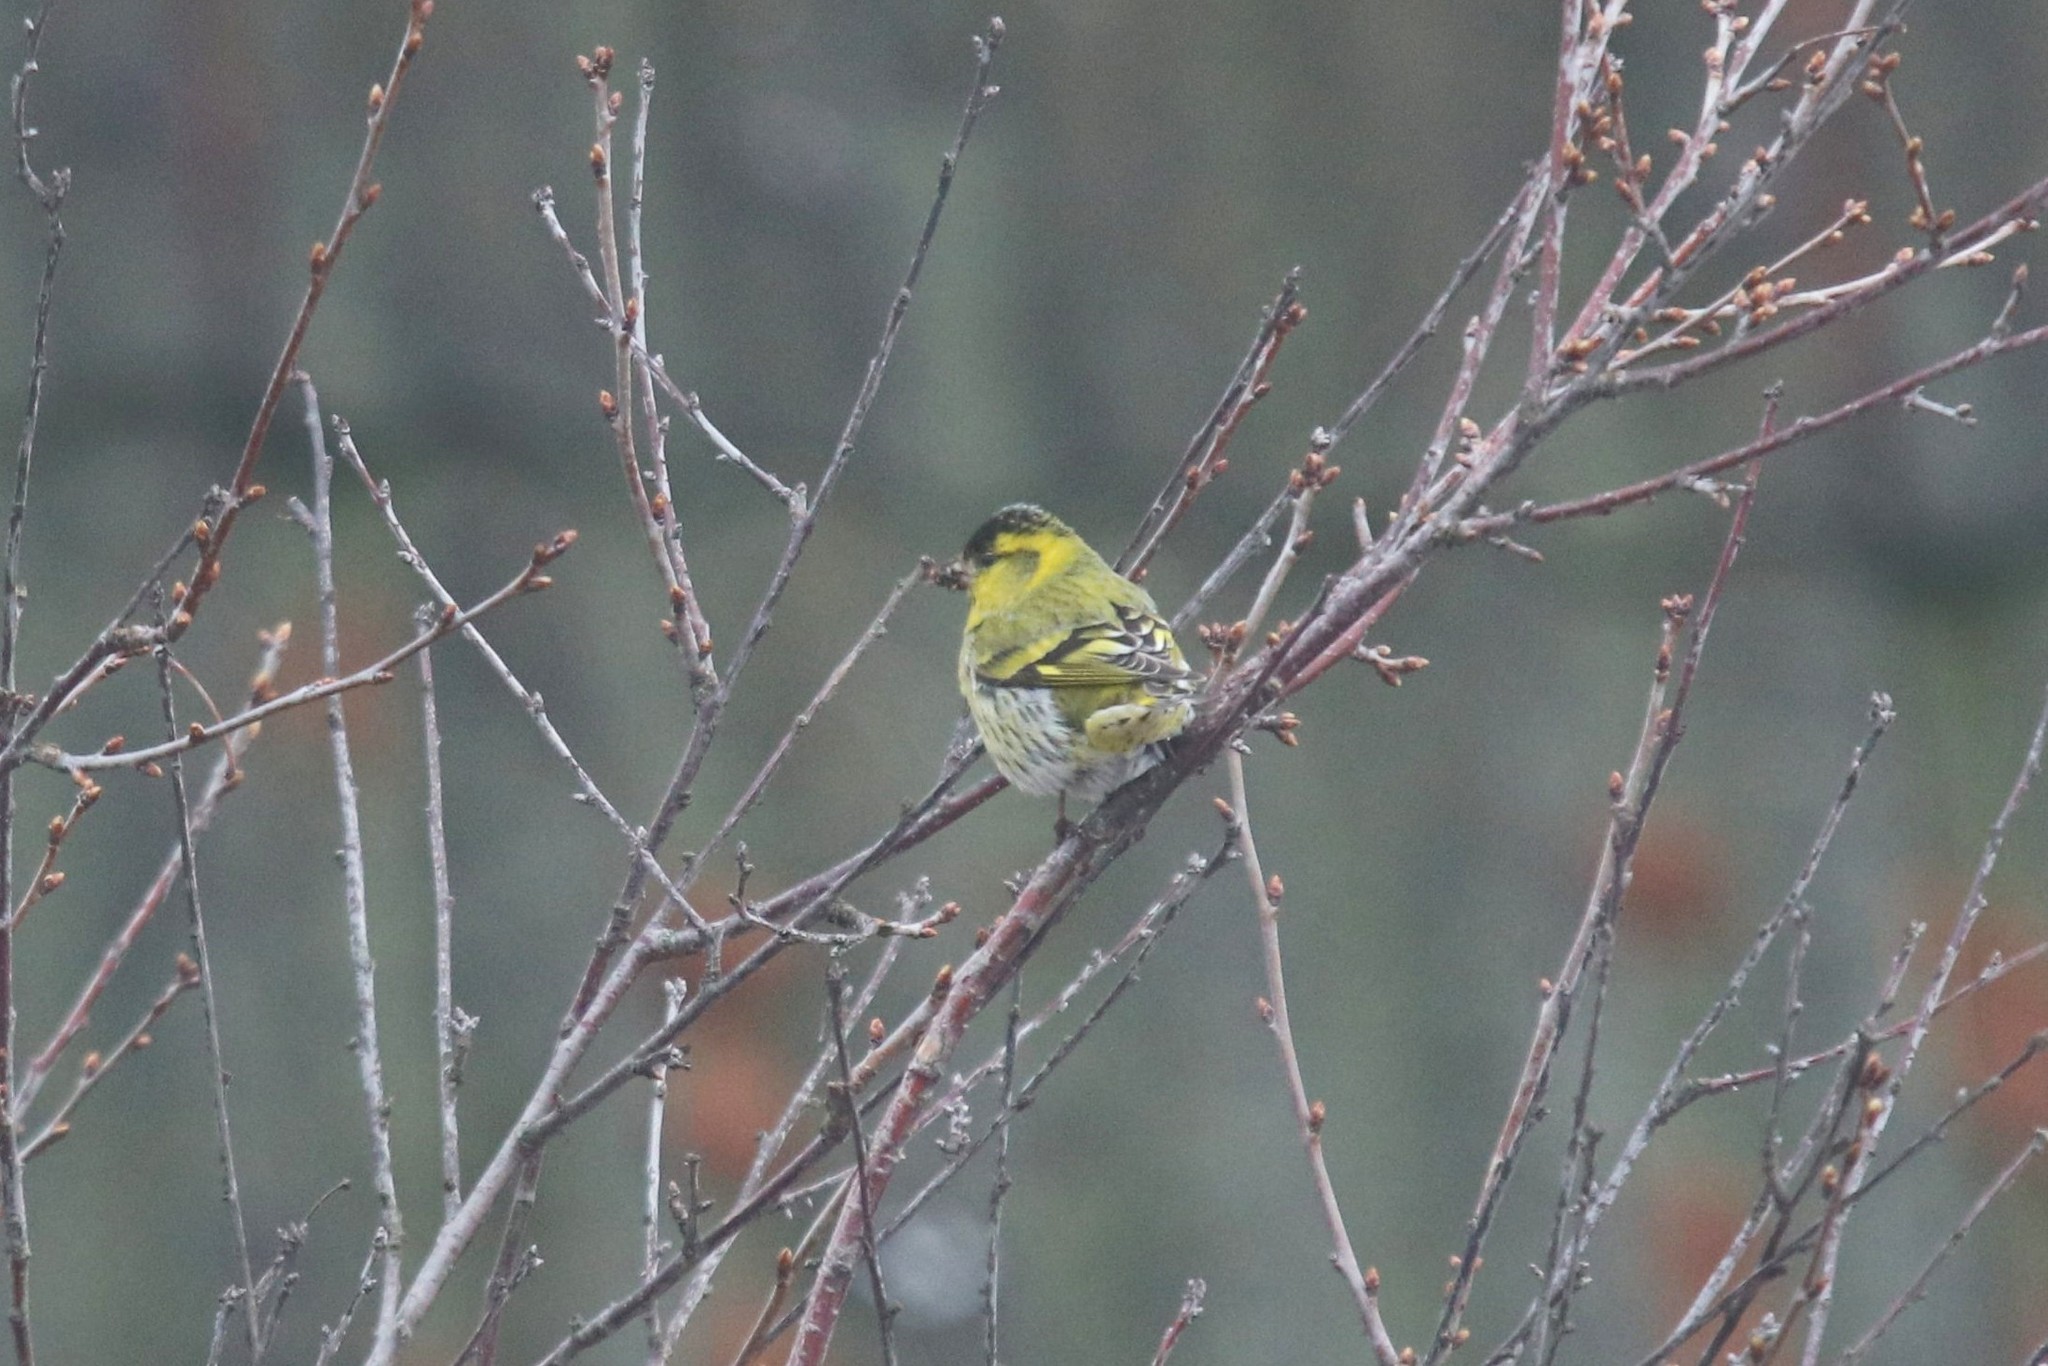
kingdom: Animalia
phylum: Chordata
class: Aves
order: Passeriformes
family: Fringillidae
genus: Spinus
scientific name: Spinus spinus
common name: Eurasian siskin
